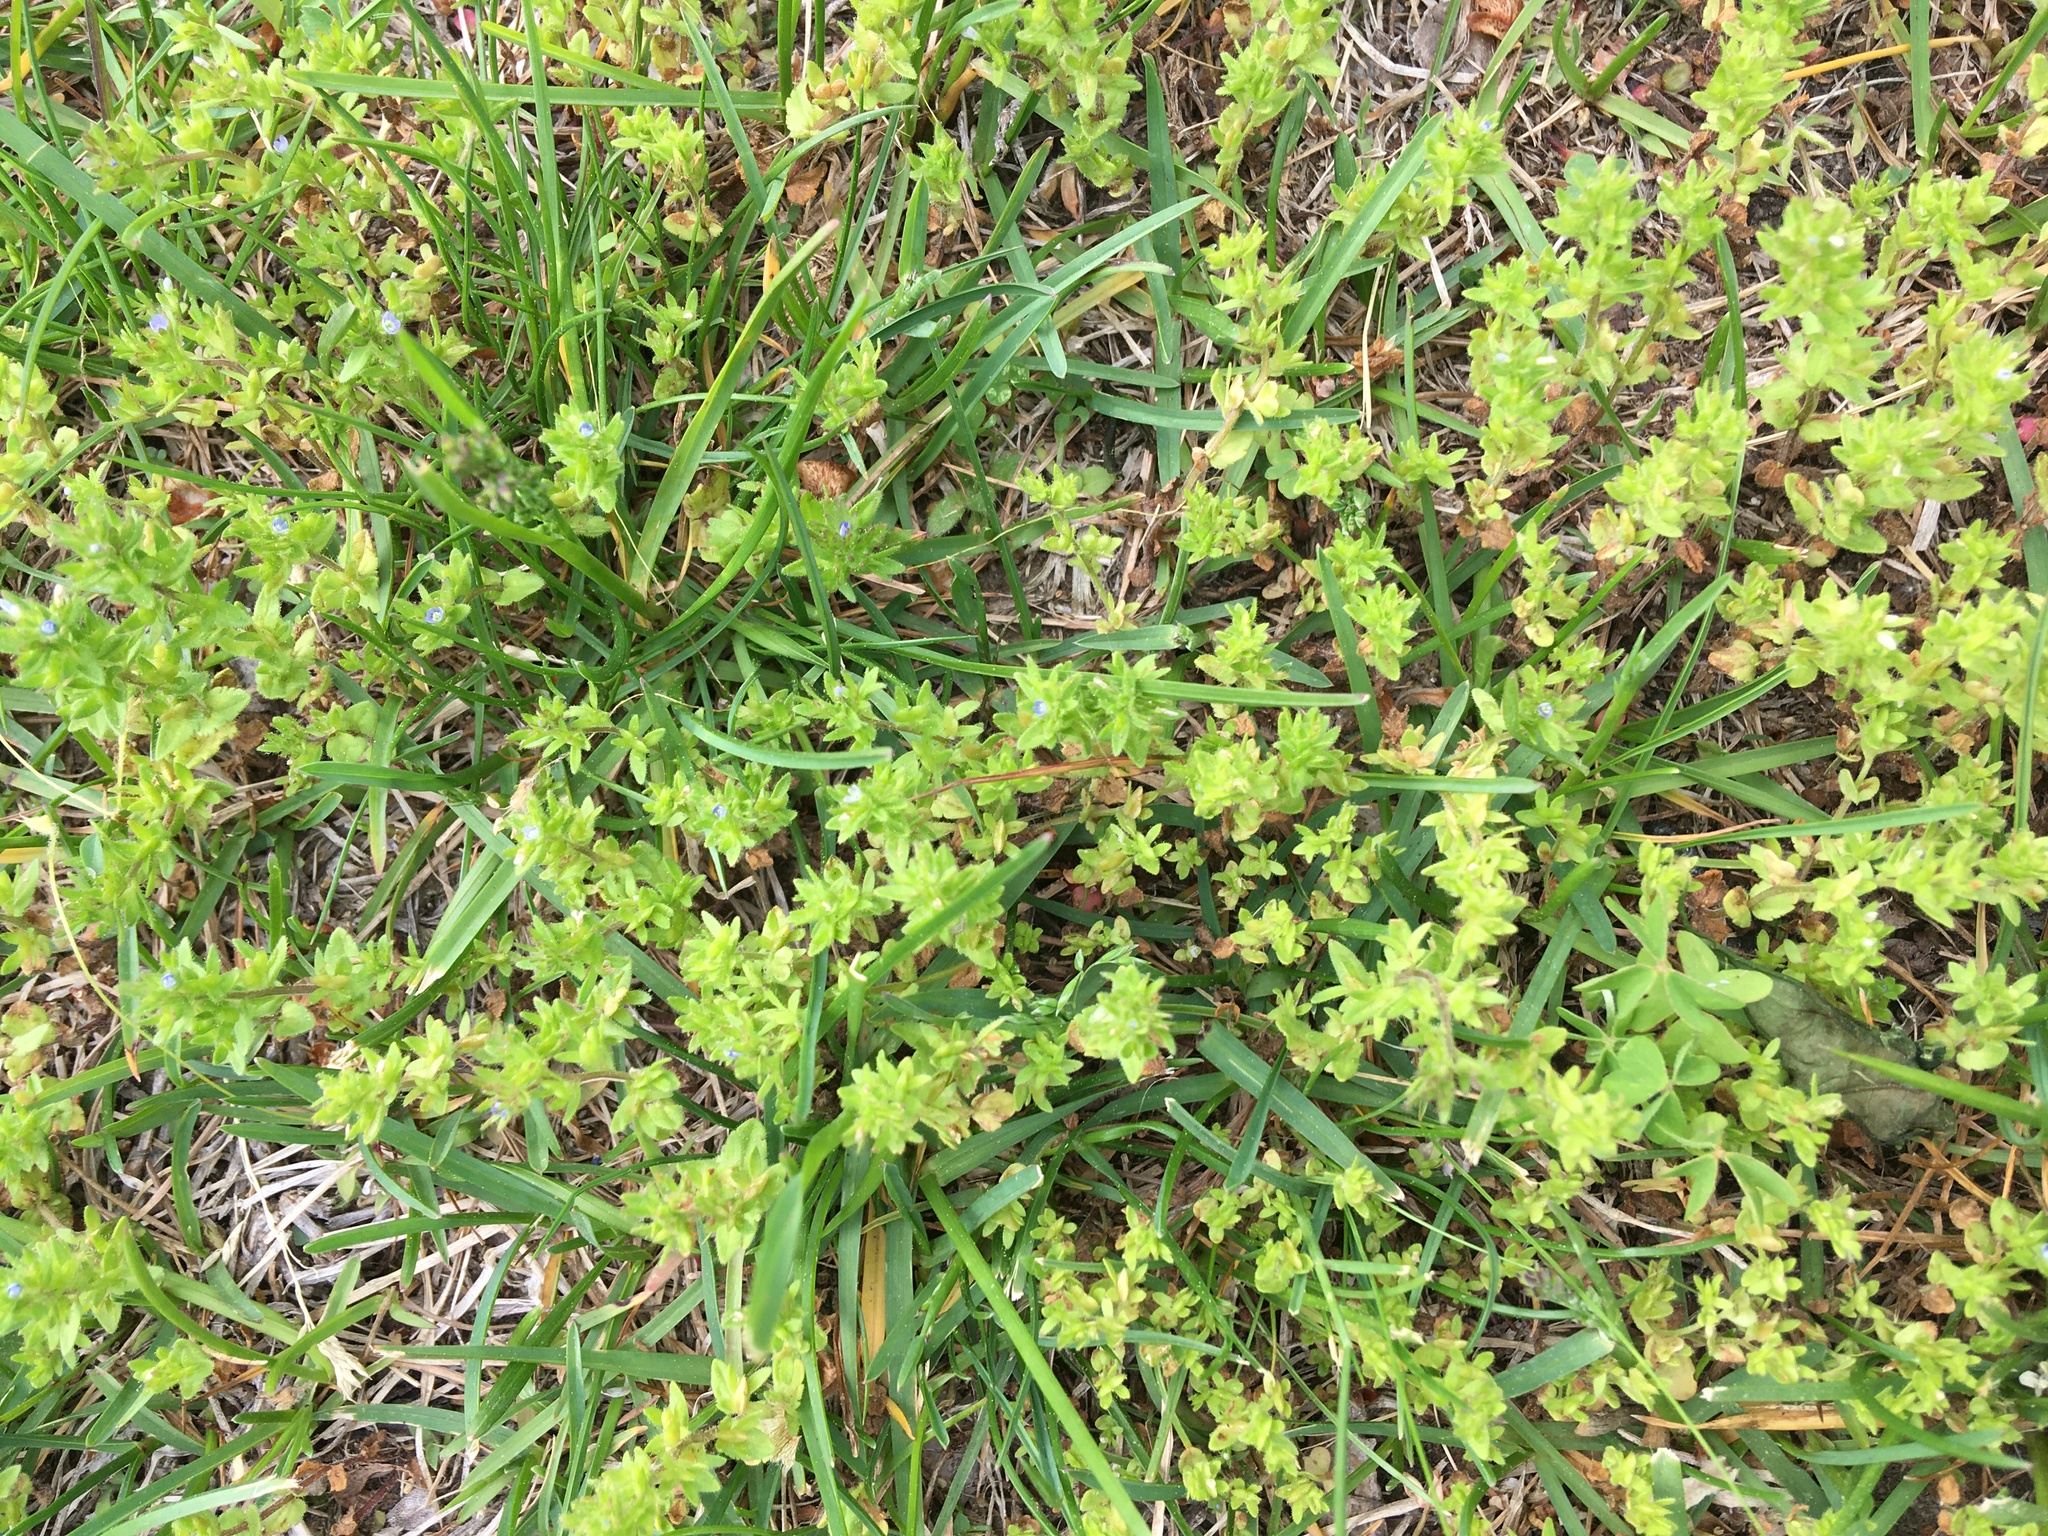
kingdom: Plantae
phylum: Tracheophyta
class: Magnoliopsida
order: Lamiales
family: Plantaginaceae
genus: Veronica
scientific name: Veronica arvensis
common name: Corn speedwell
